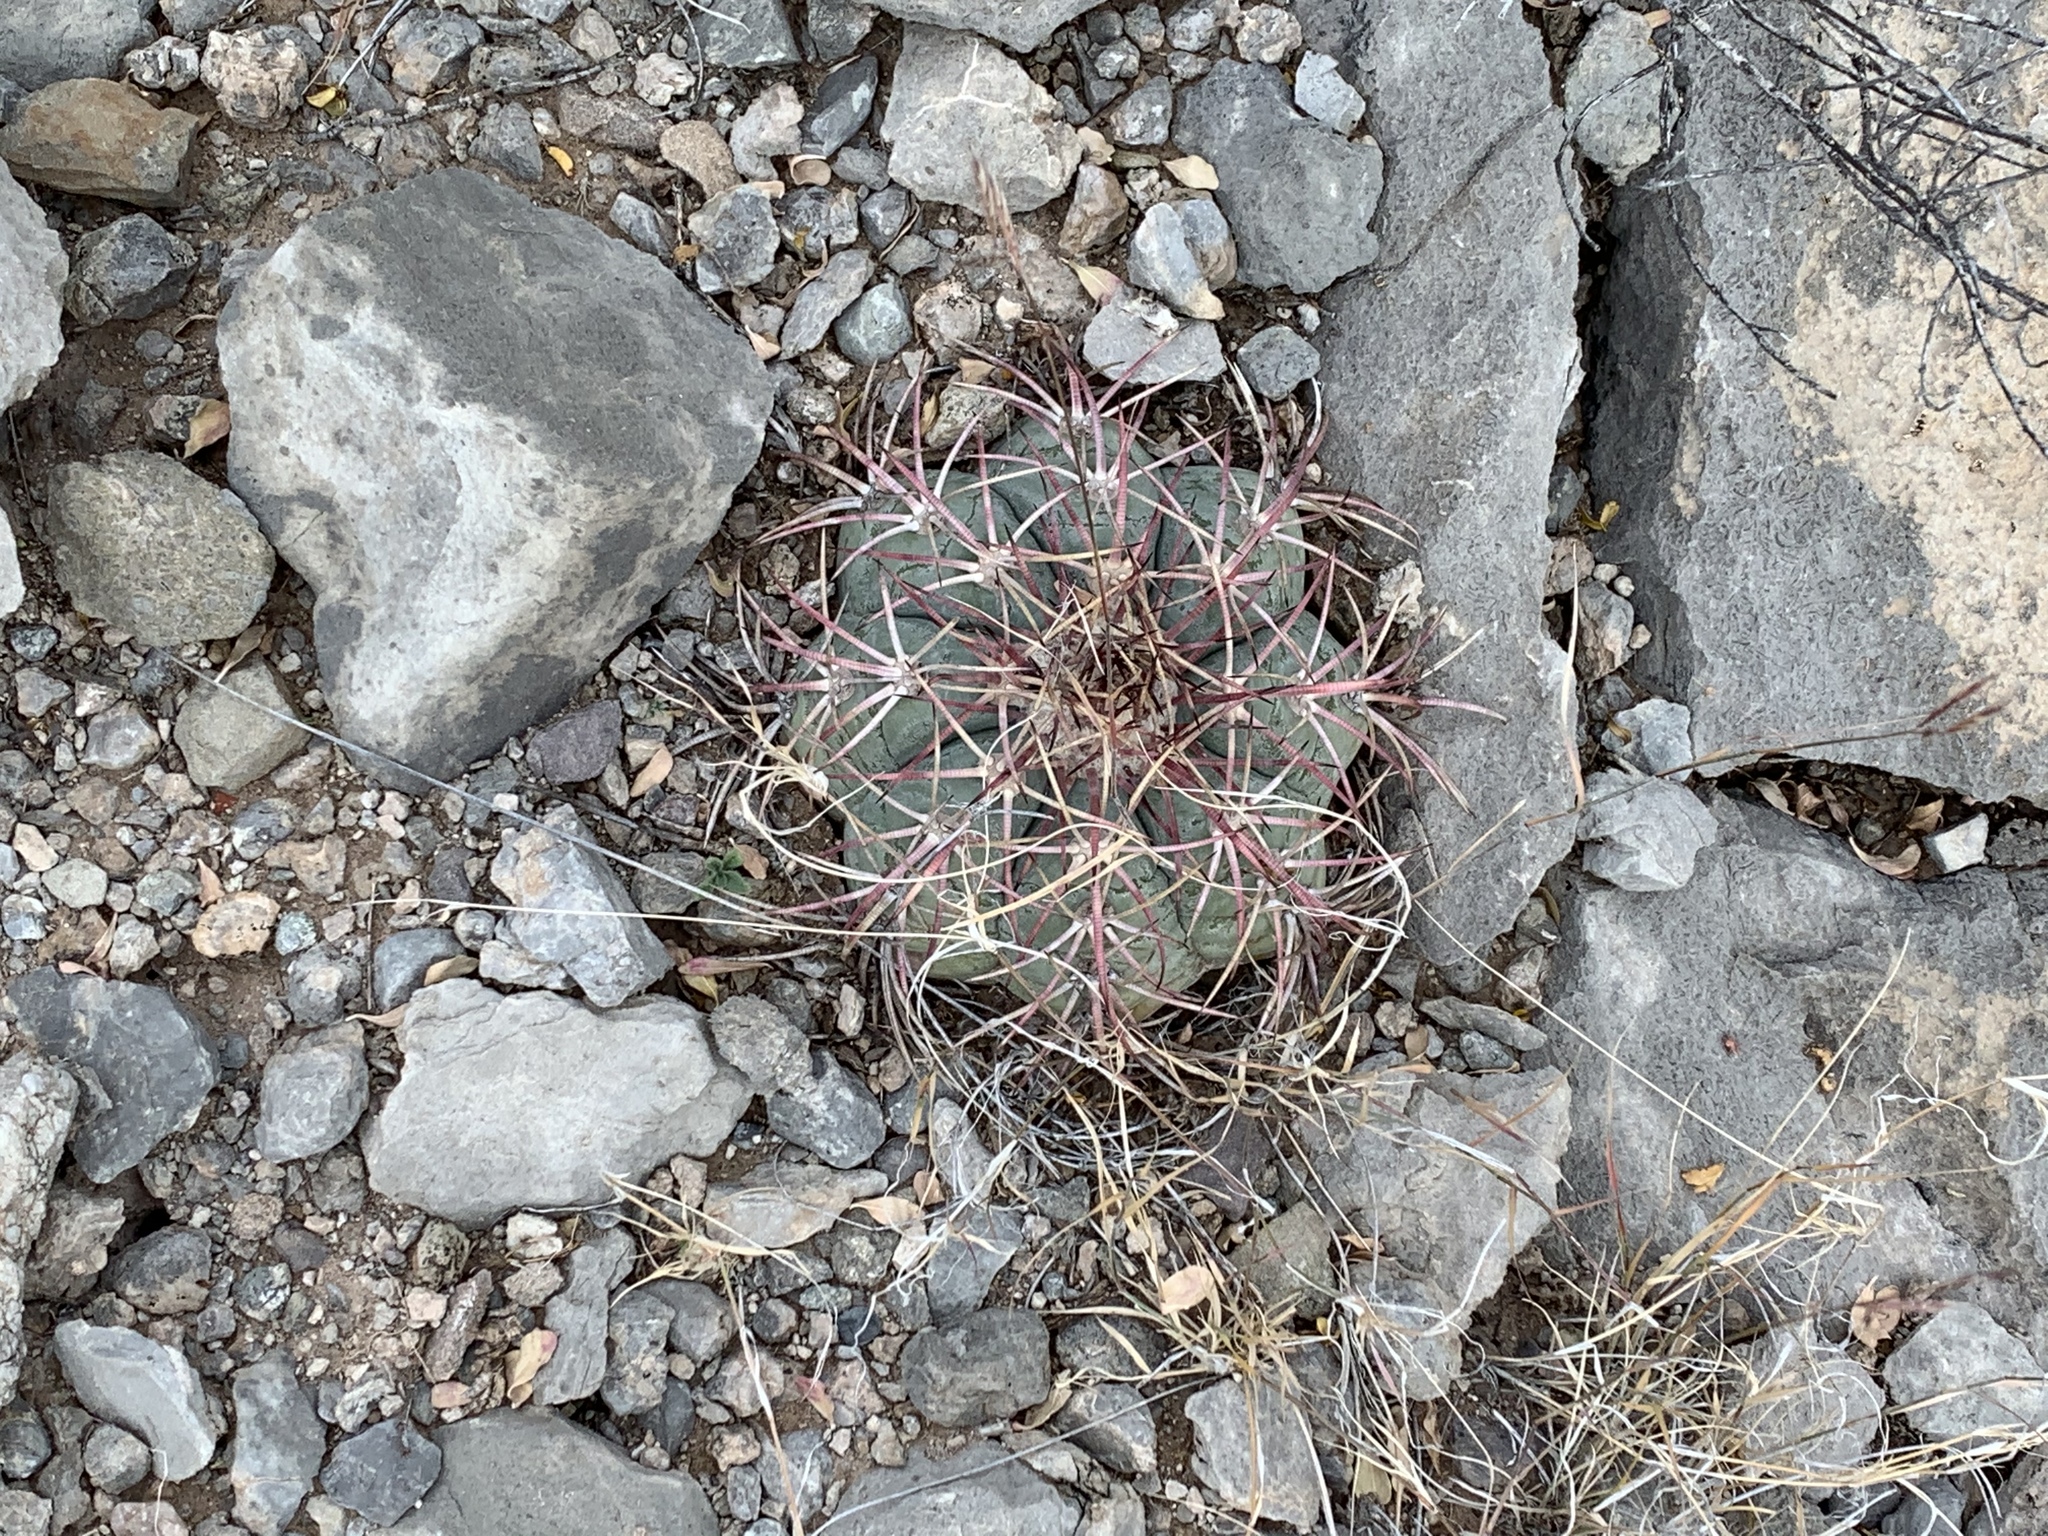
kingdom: Plantae
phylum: Tracheophyta
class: Magnoliopsida
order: Caryophyllales
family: Cactaceae
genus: Echinocactus
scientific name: Echinocactus horizonthalonius
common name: Devilshead
